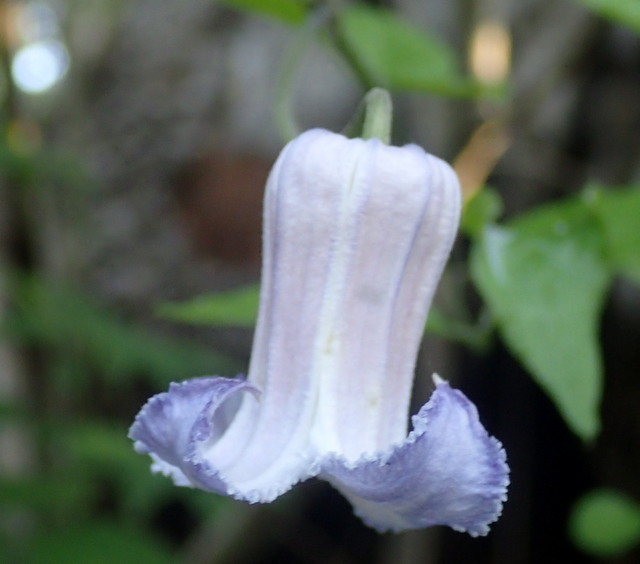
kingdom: Plantae
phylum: Tracheophyta
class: Magnoliopsida
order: Ranunculales
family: Ranunculaceae
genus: Clematis
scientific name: Clematis crispa
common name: Curly clematis
